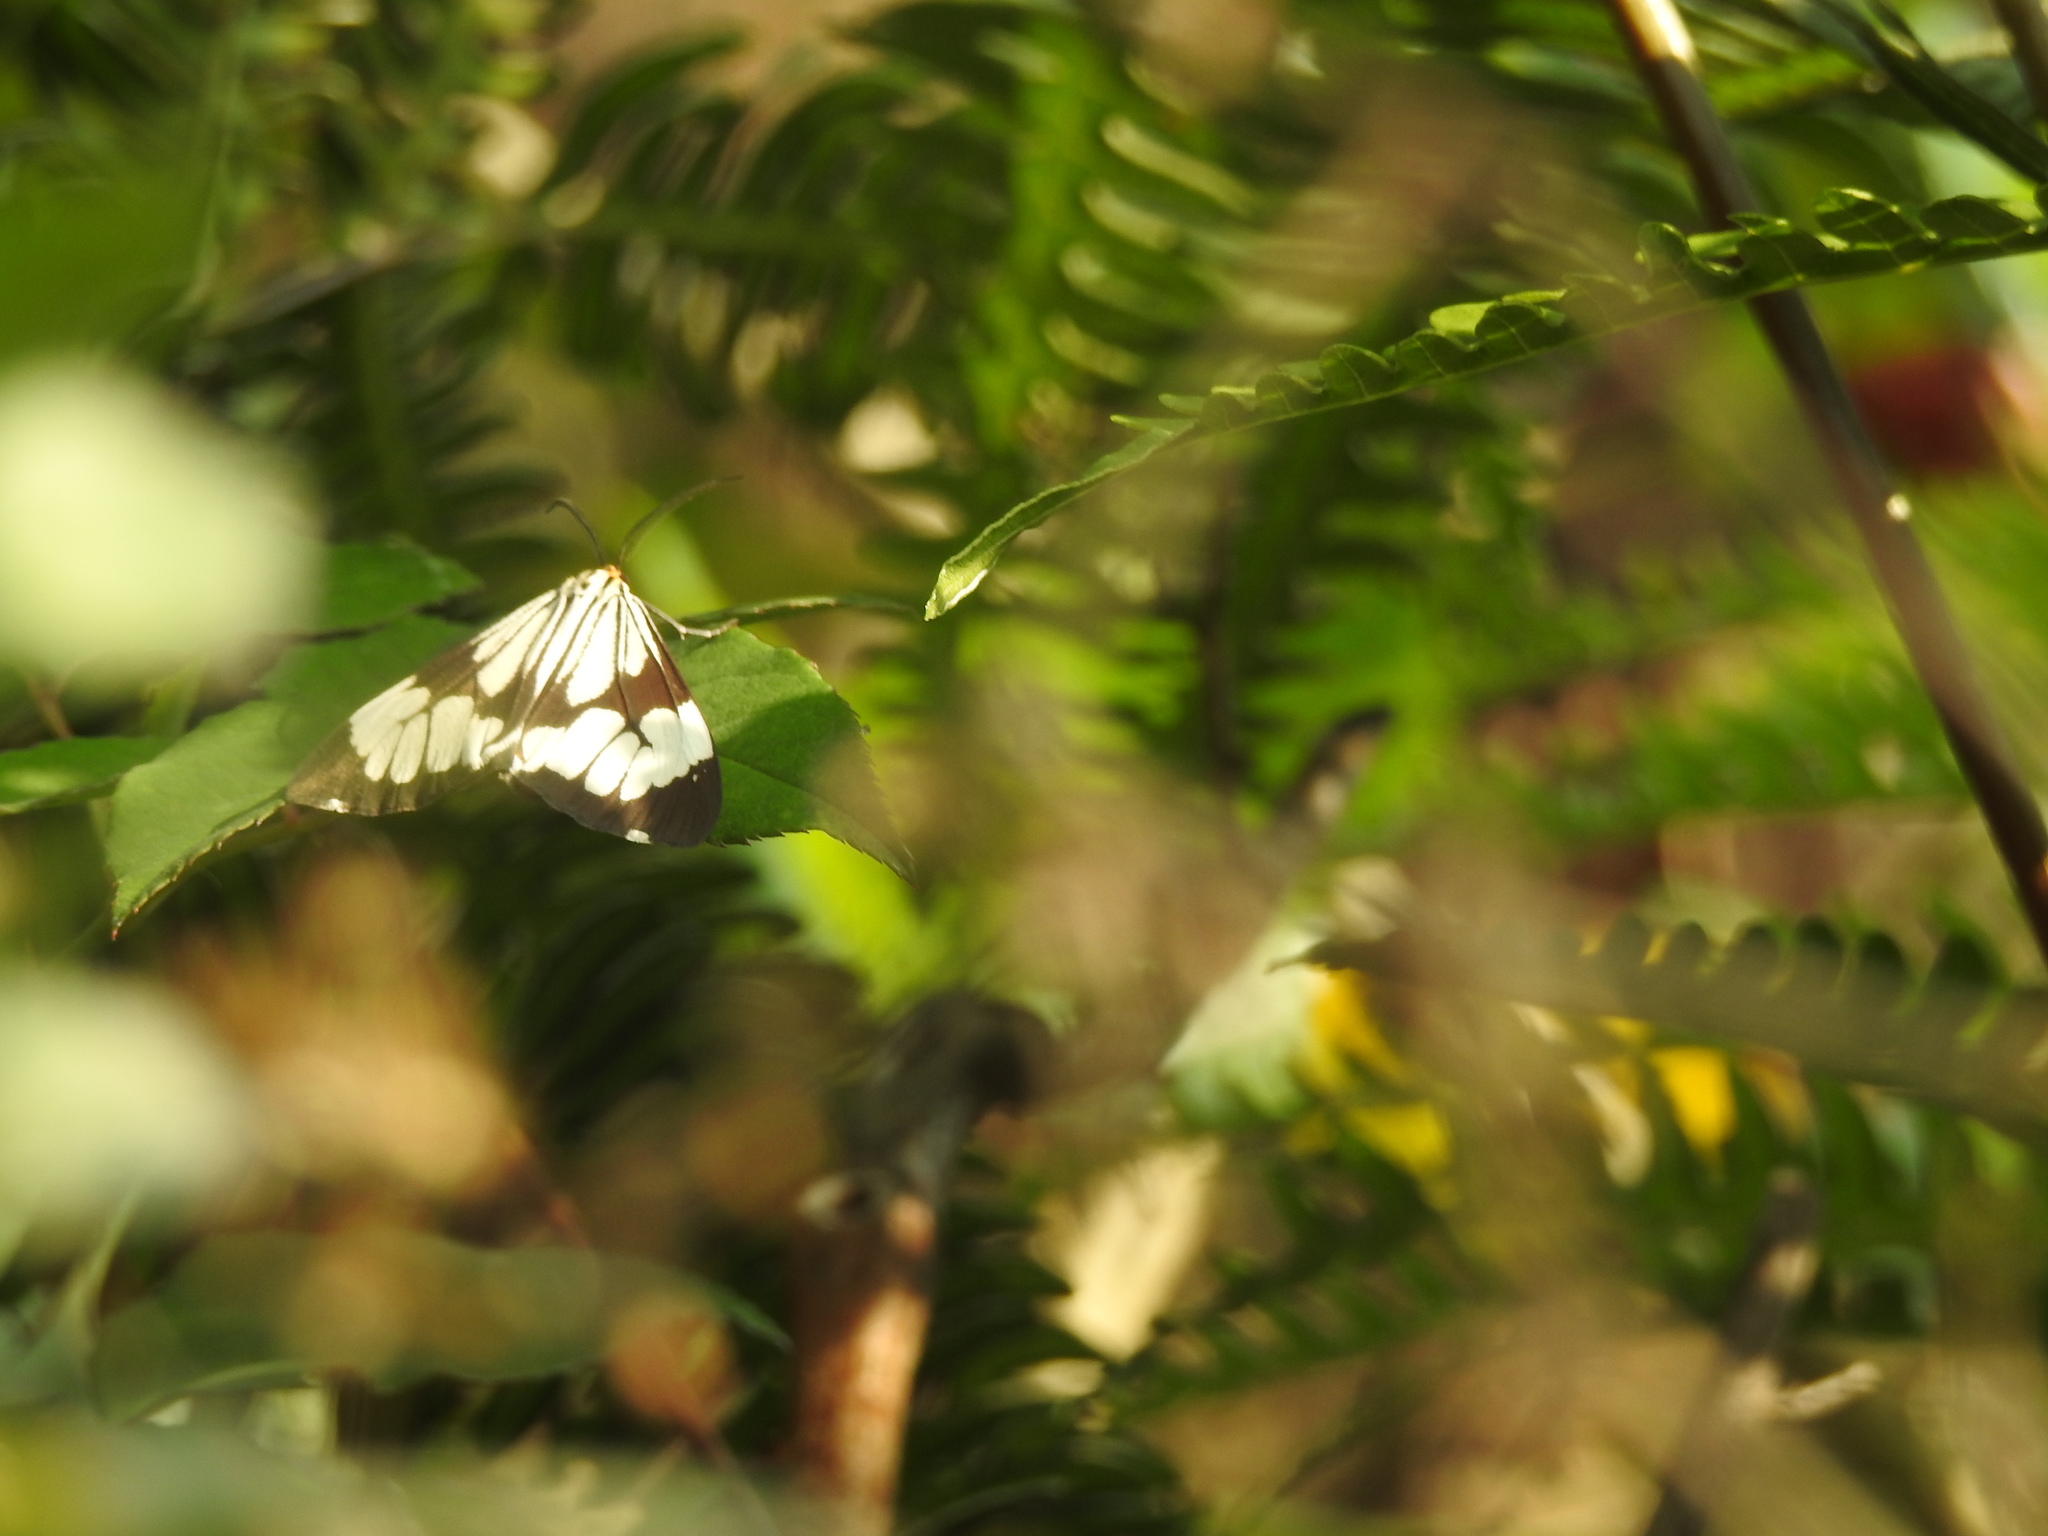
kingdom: Animalia
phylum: Arthropoda
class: Insecta
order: Lepidoptera
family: Erebidae
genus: Nyctemera
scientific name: Nyctemera coleta
